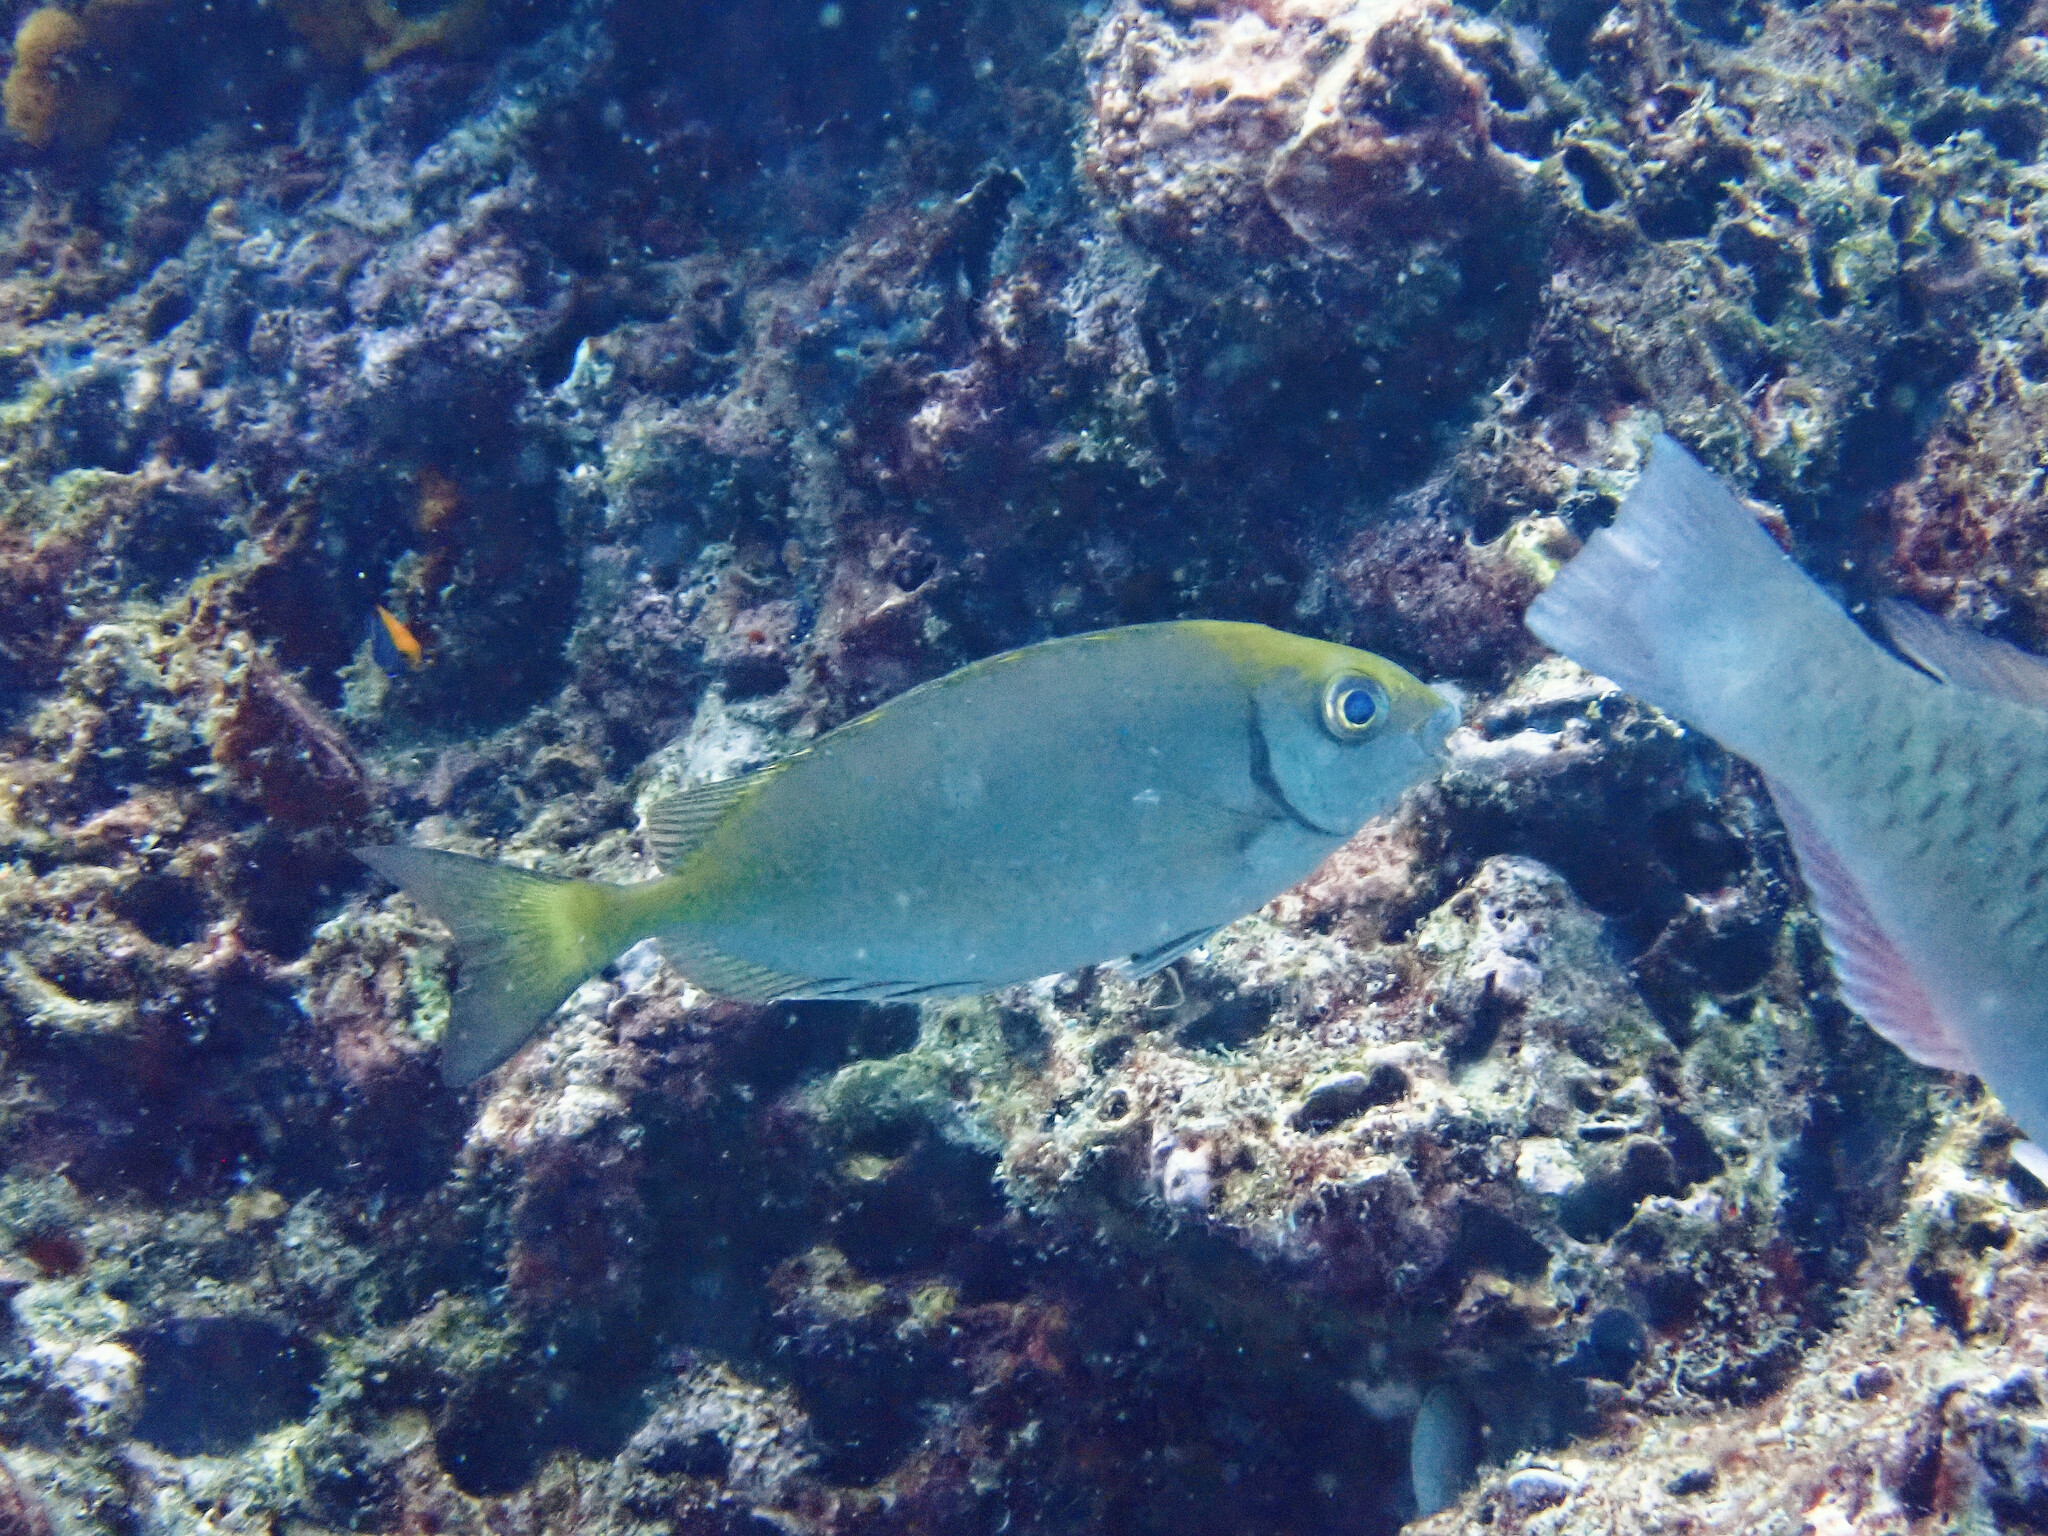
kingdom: Animalia
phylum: Chordata
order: Perciformes
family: Siganidae
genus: Siganus
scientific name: Siganus fuscescens
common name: Dusky rabbitfish
